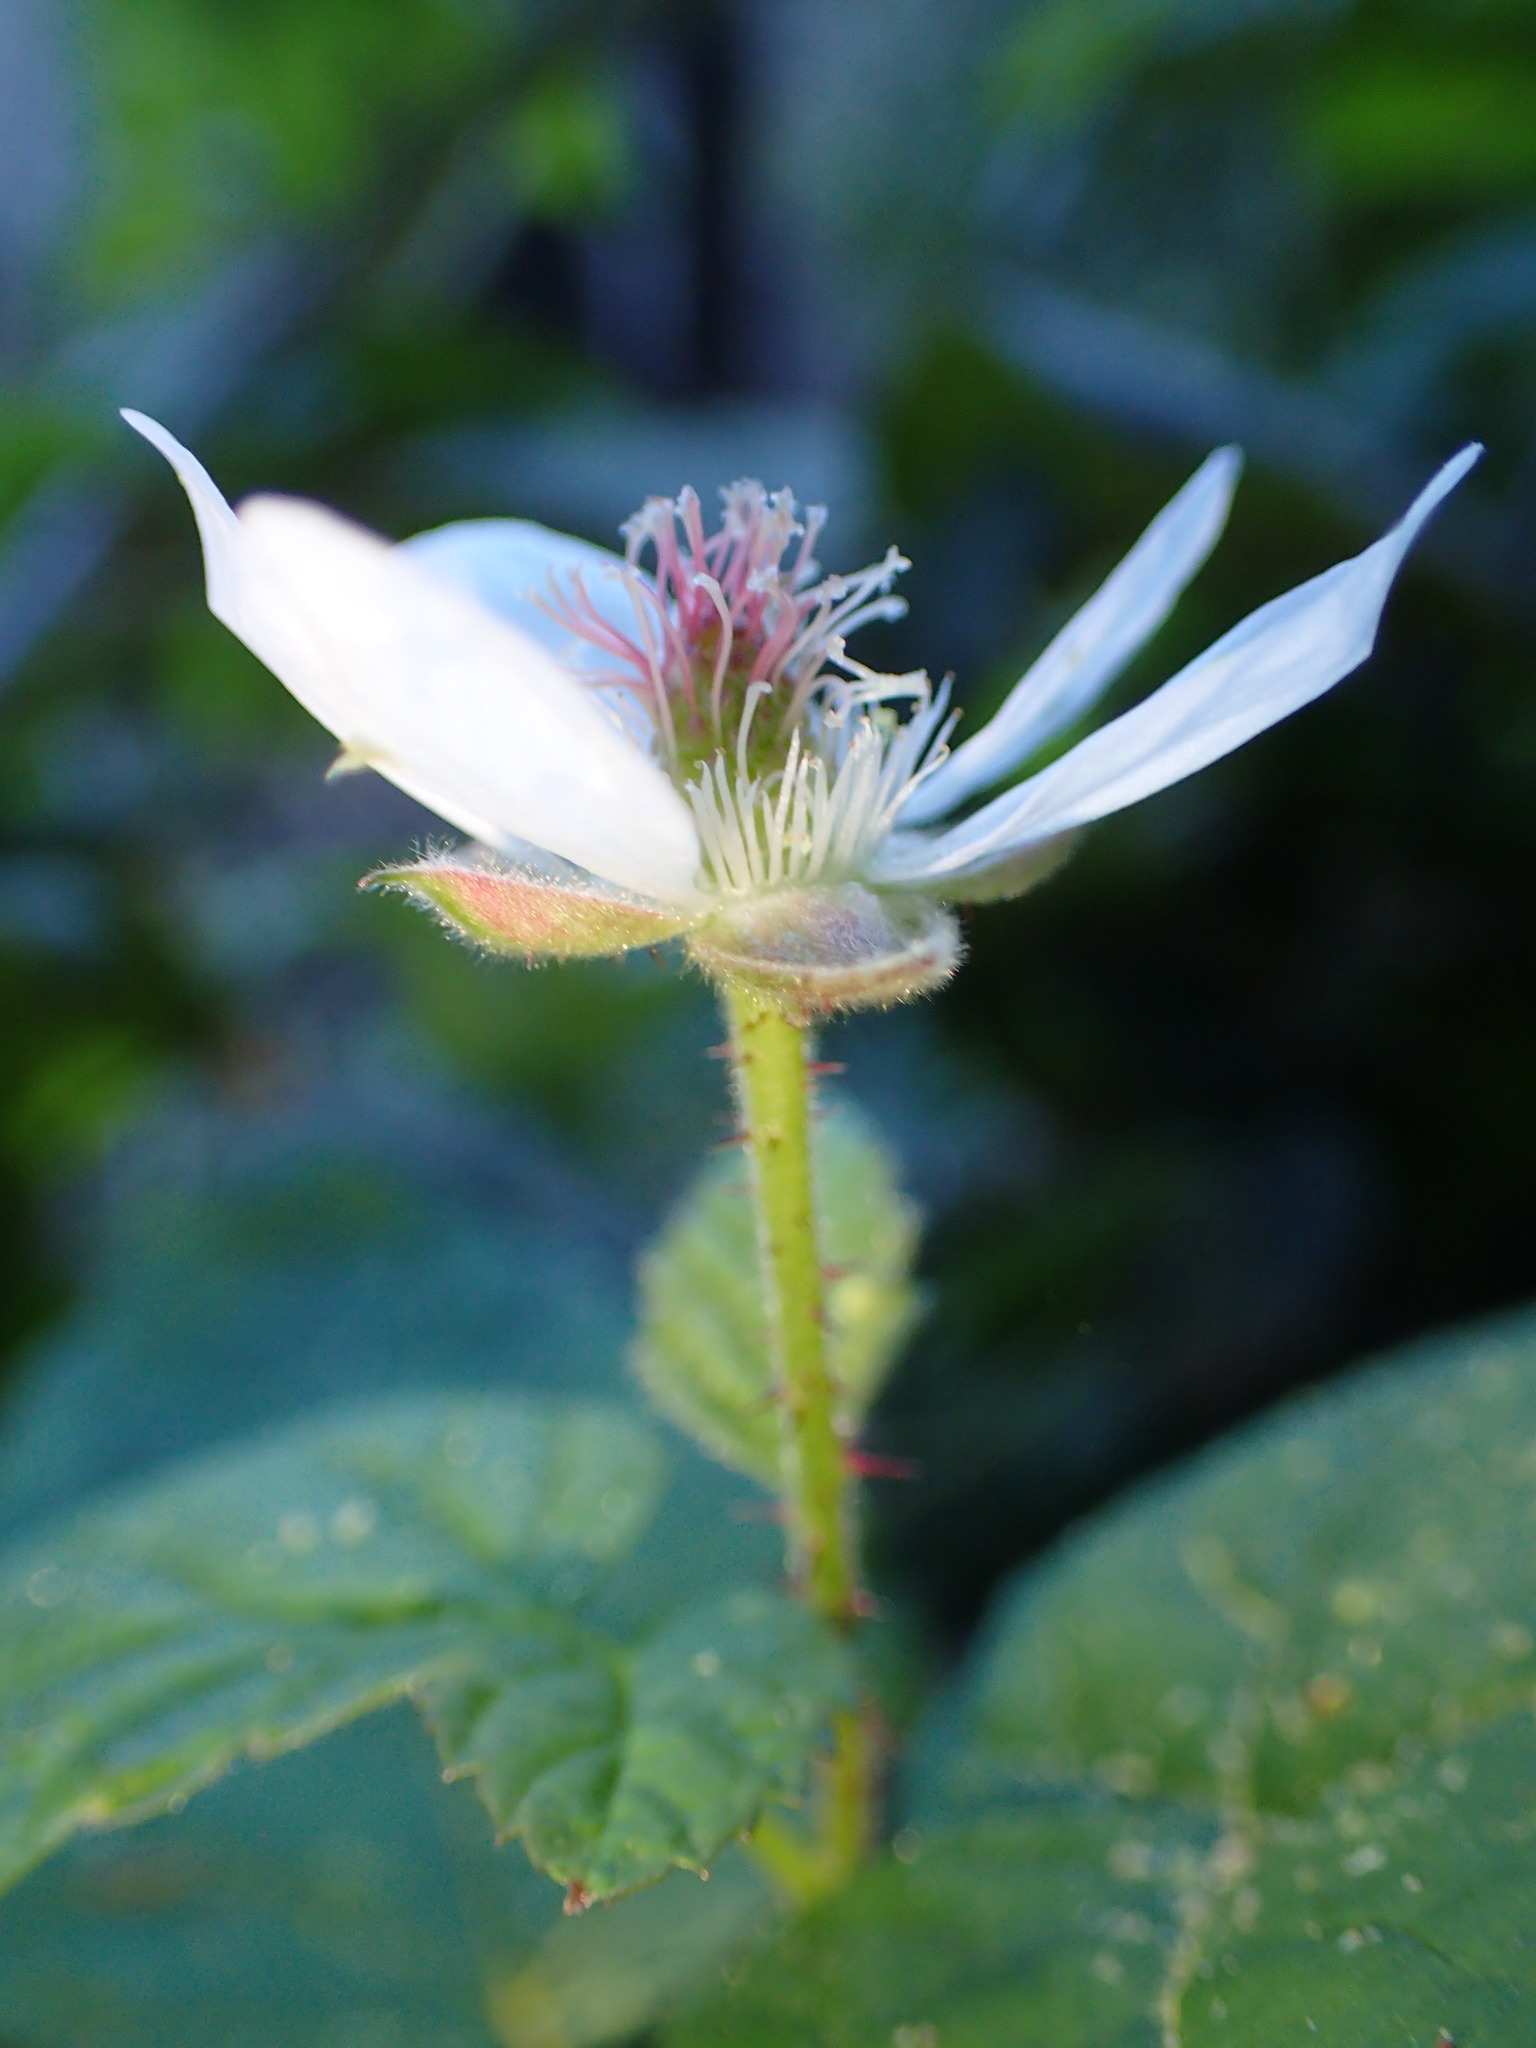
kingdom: Plantae
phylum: Tracheophyta
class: Magnoliopsida
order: Rosales
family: Rosaceae
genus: Rubus
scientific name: Rubus ursinus
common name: Pacific blackberry
